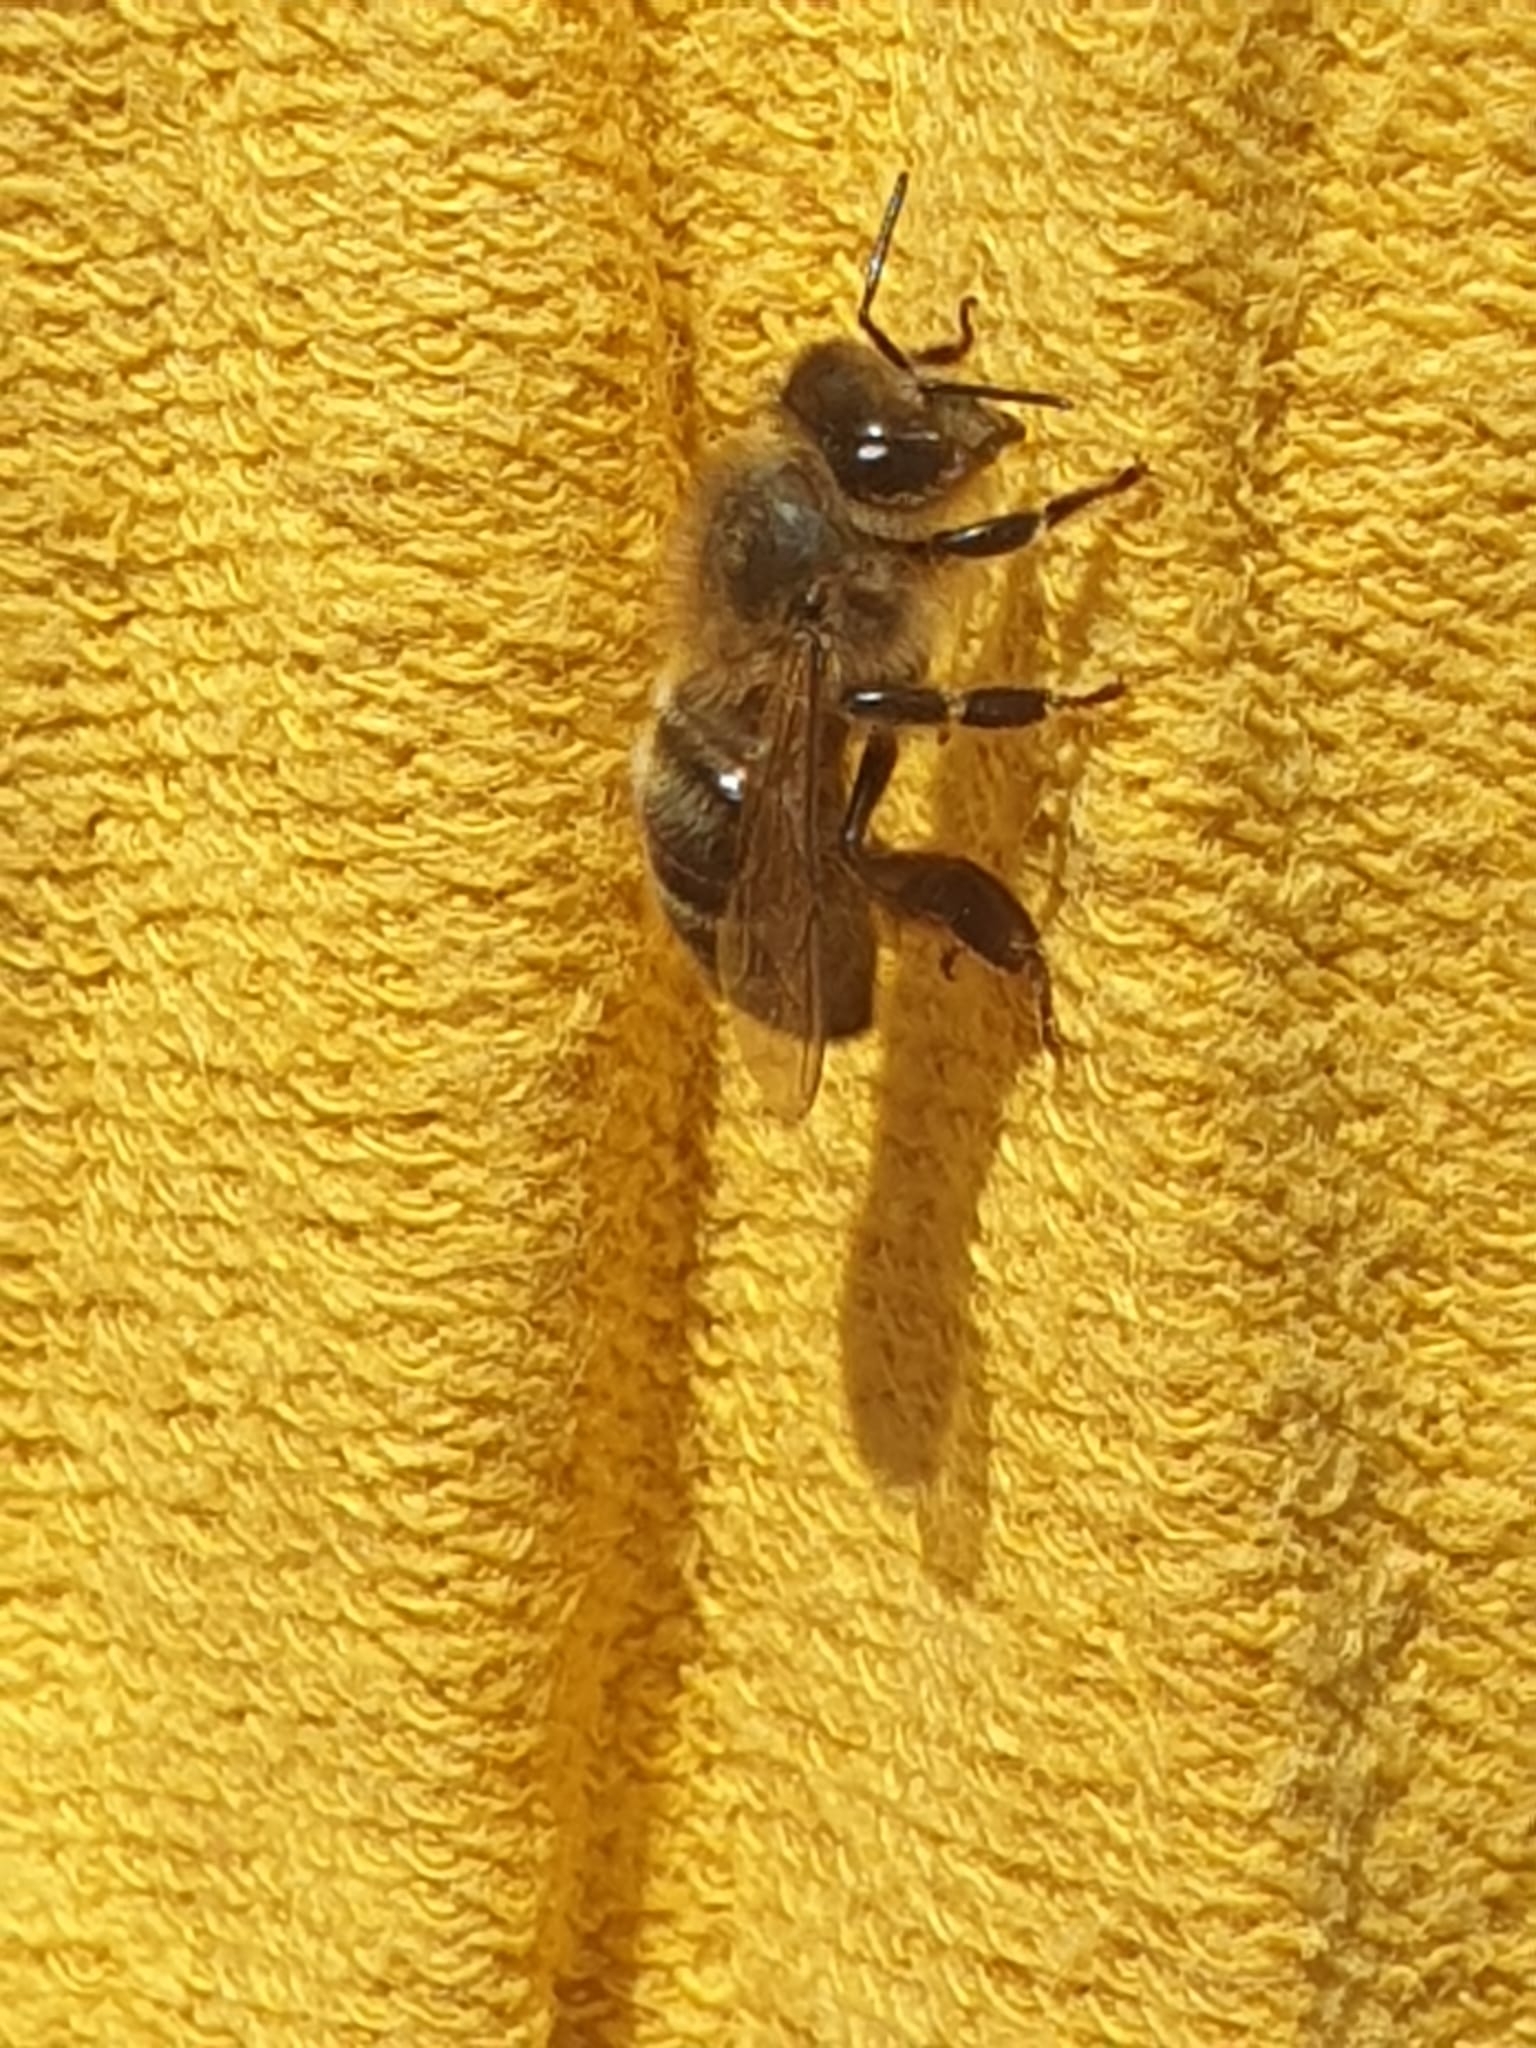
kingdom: Animalia
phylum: Arthropoda
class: Insecta
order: Hymenoptera
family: Apidae
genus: Apis
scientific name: Apis mellifera
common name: Honey bee
